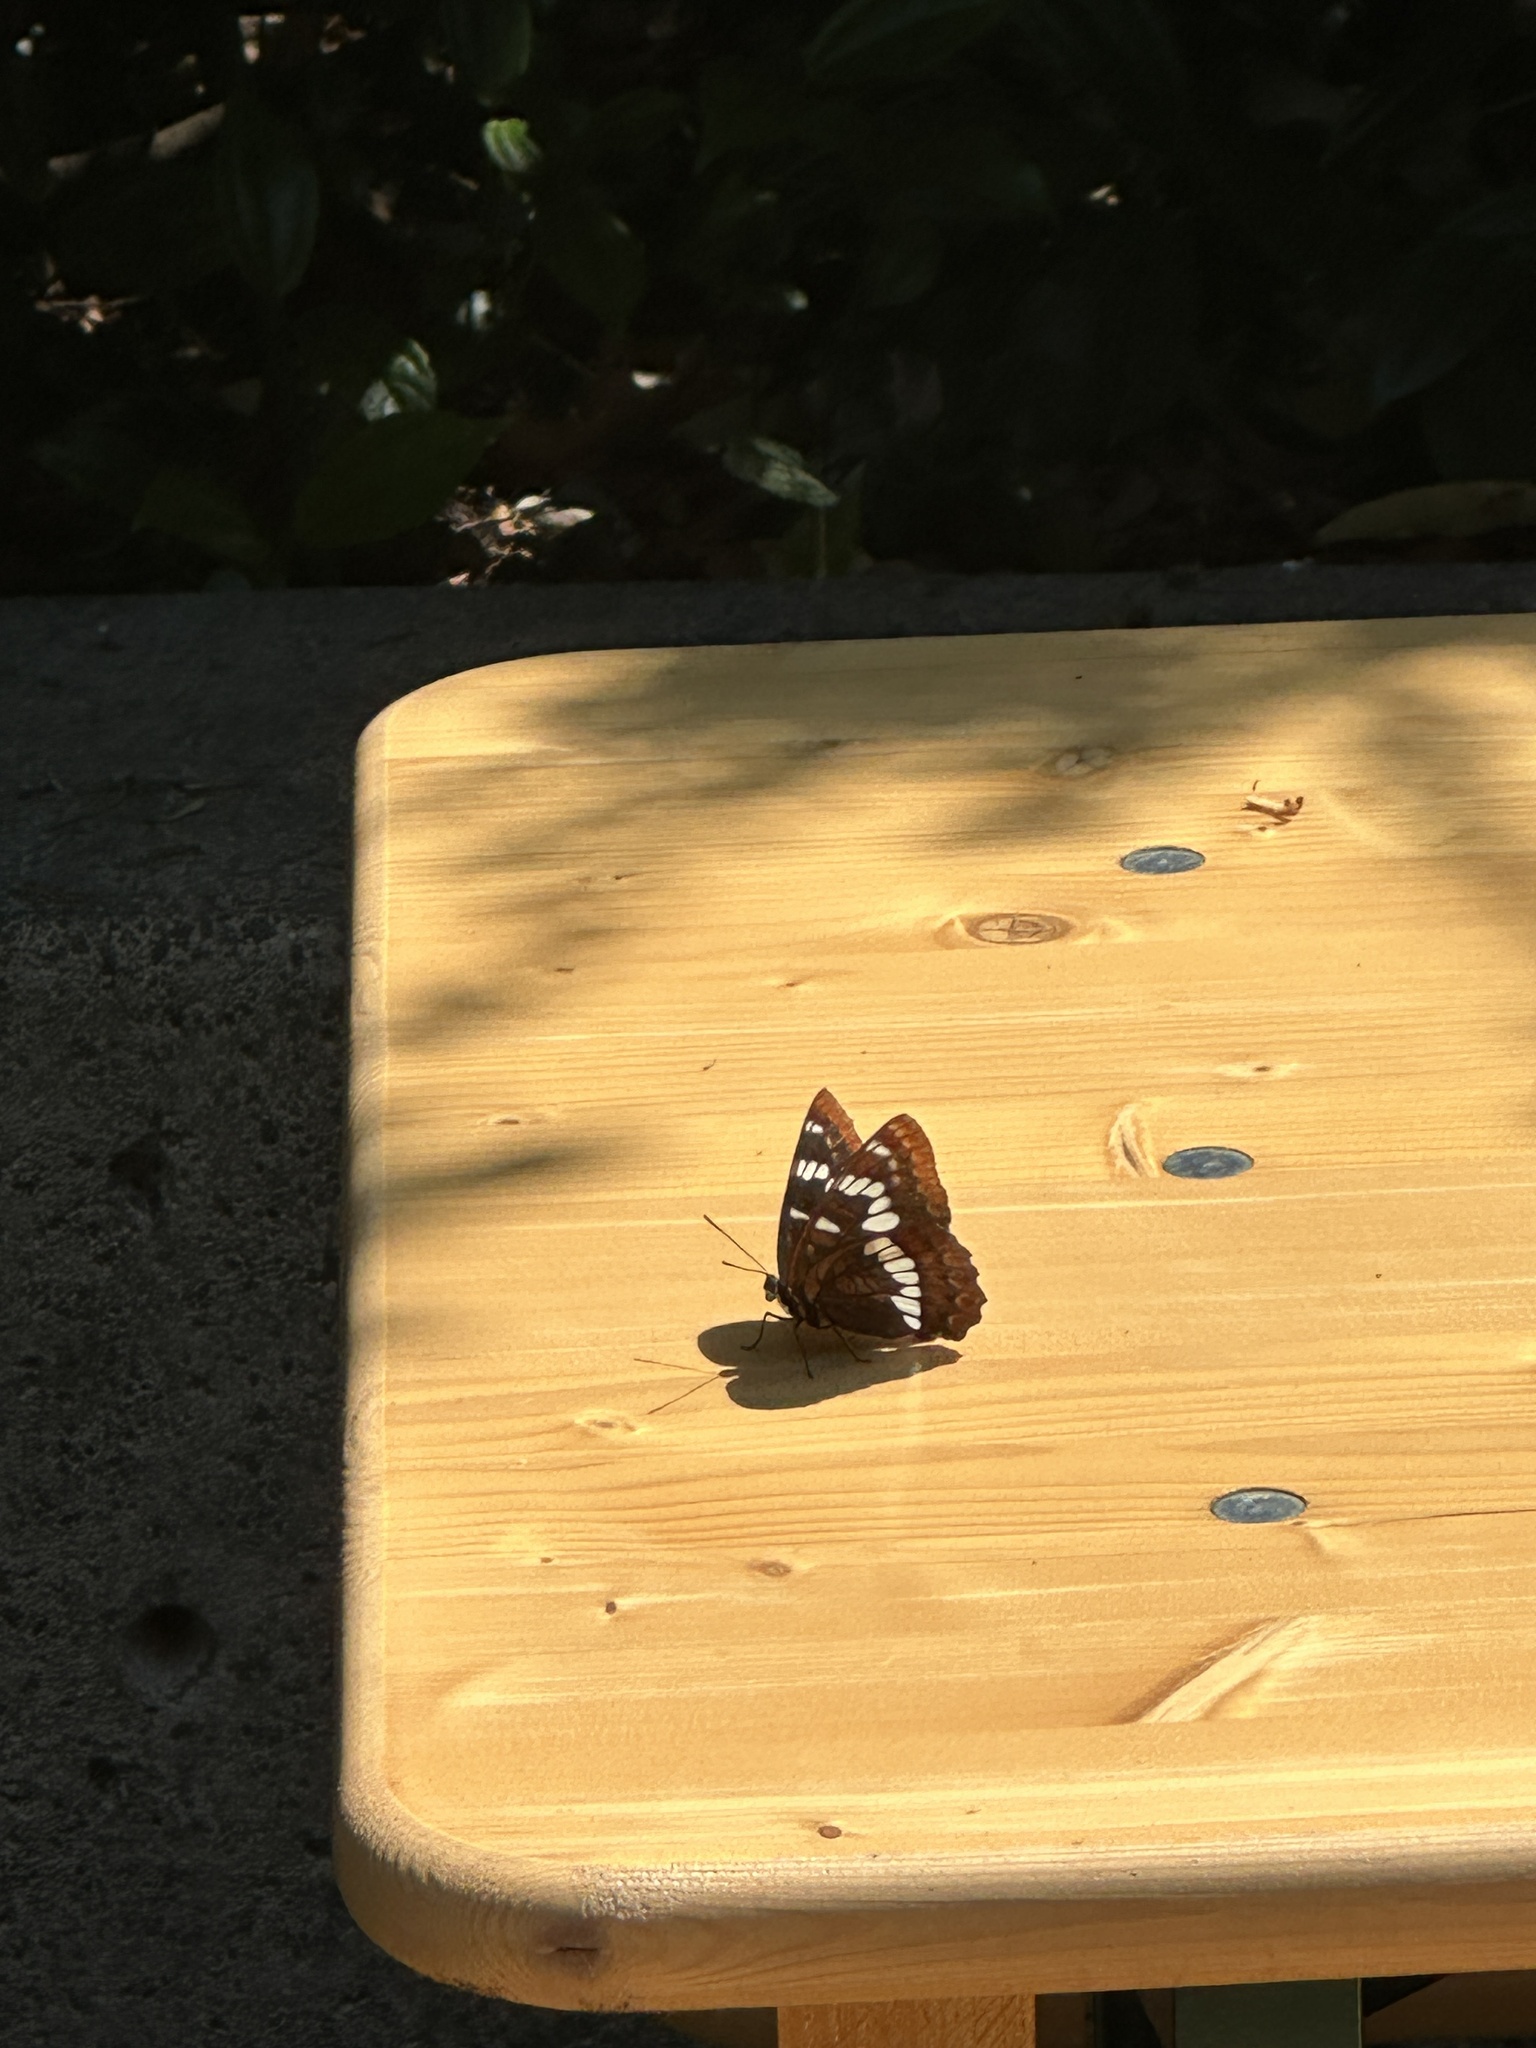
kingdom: Animalia
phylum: Arthropoda
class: Insecta
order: Lepidoptera
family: Nymphalidae
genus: Limenitis
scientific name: Limenitis lorquini
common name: Lorquin's admiral
